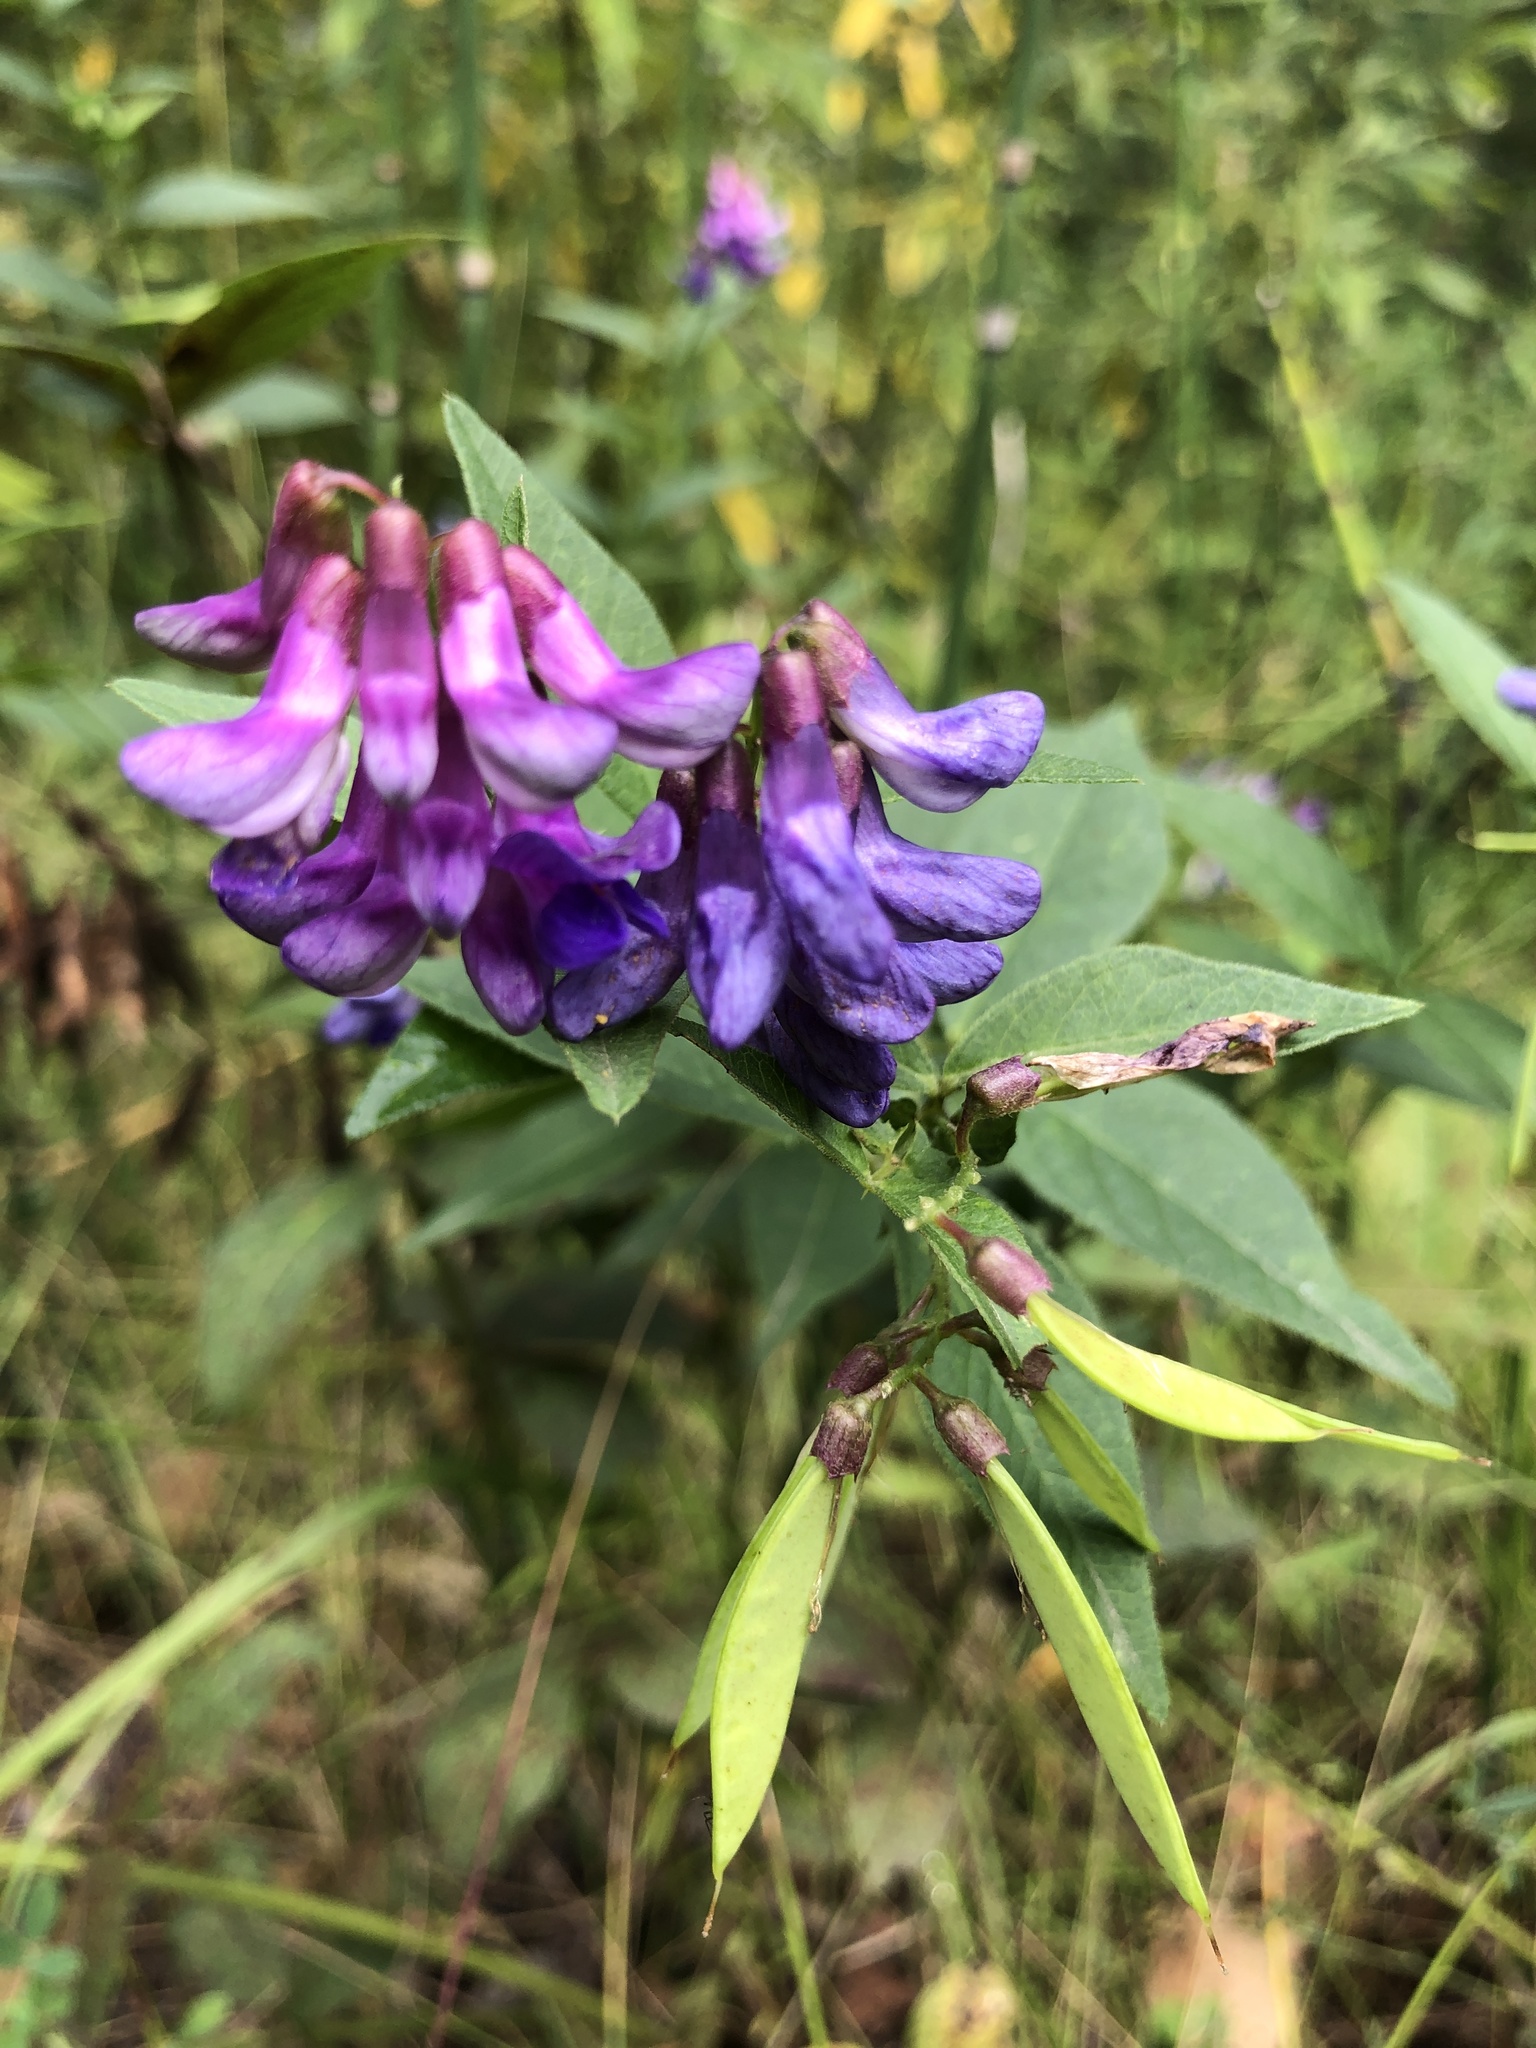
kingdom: Plantae
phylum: Tracheophyta
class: Magnoliopsida
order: Fabales
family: Fabaceae
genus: Vicia
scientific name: Vicia unijuga
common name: Two-leaf vetch
